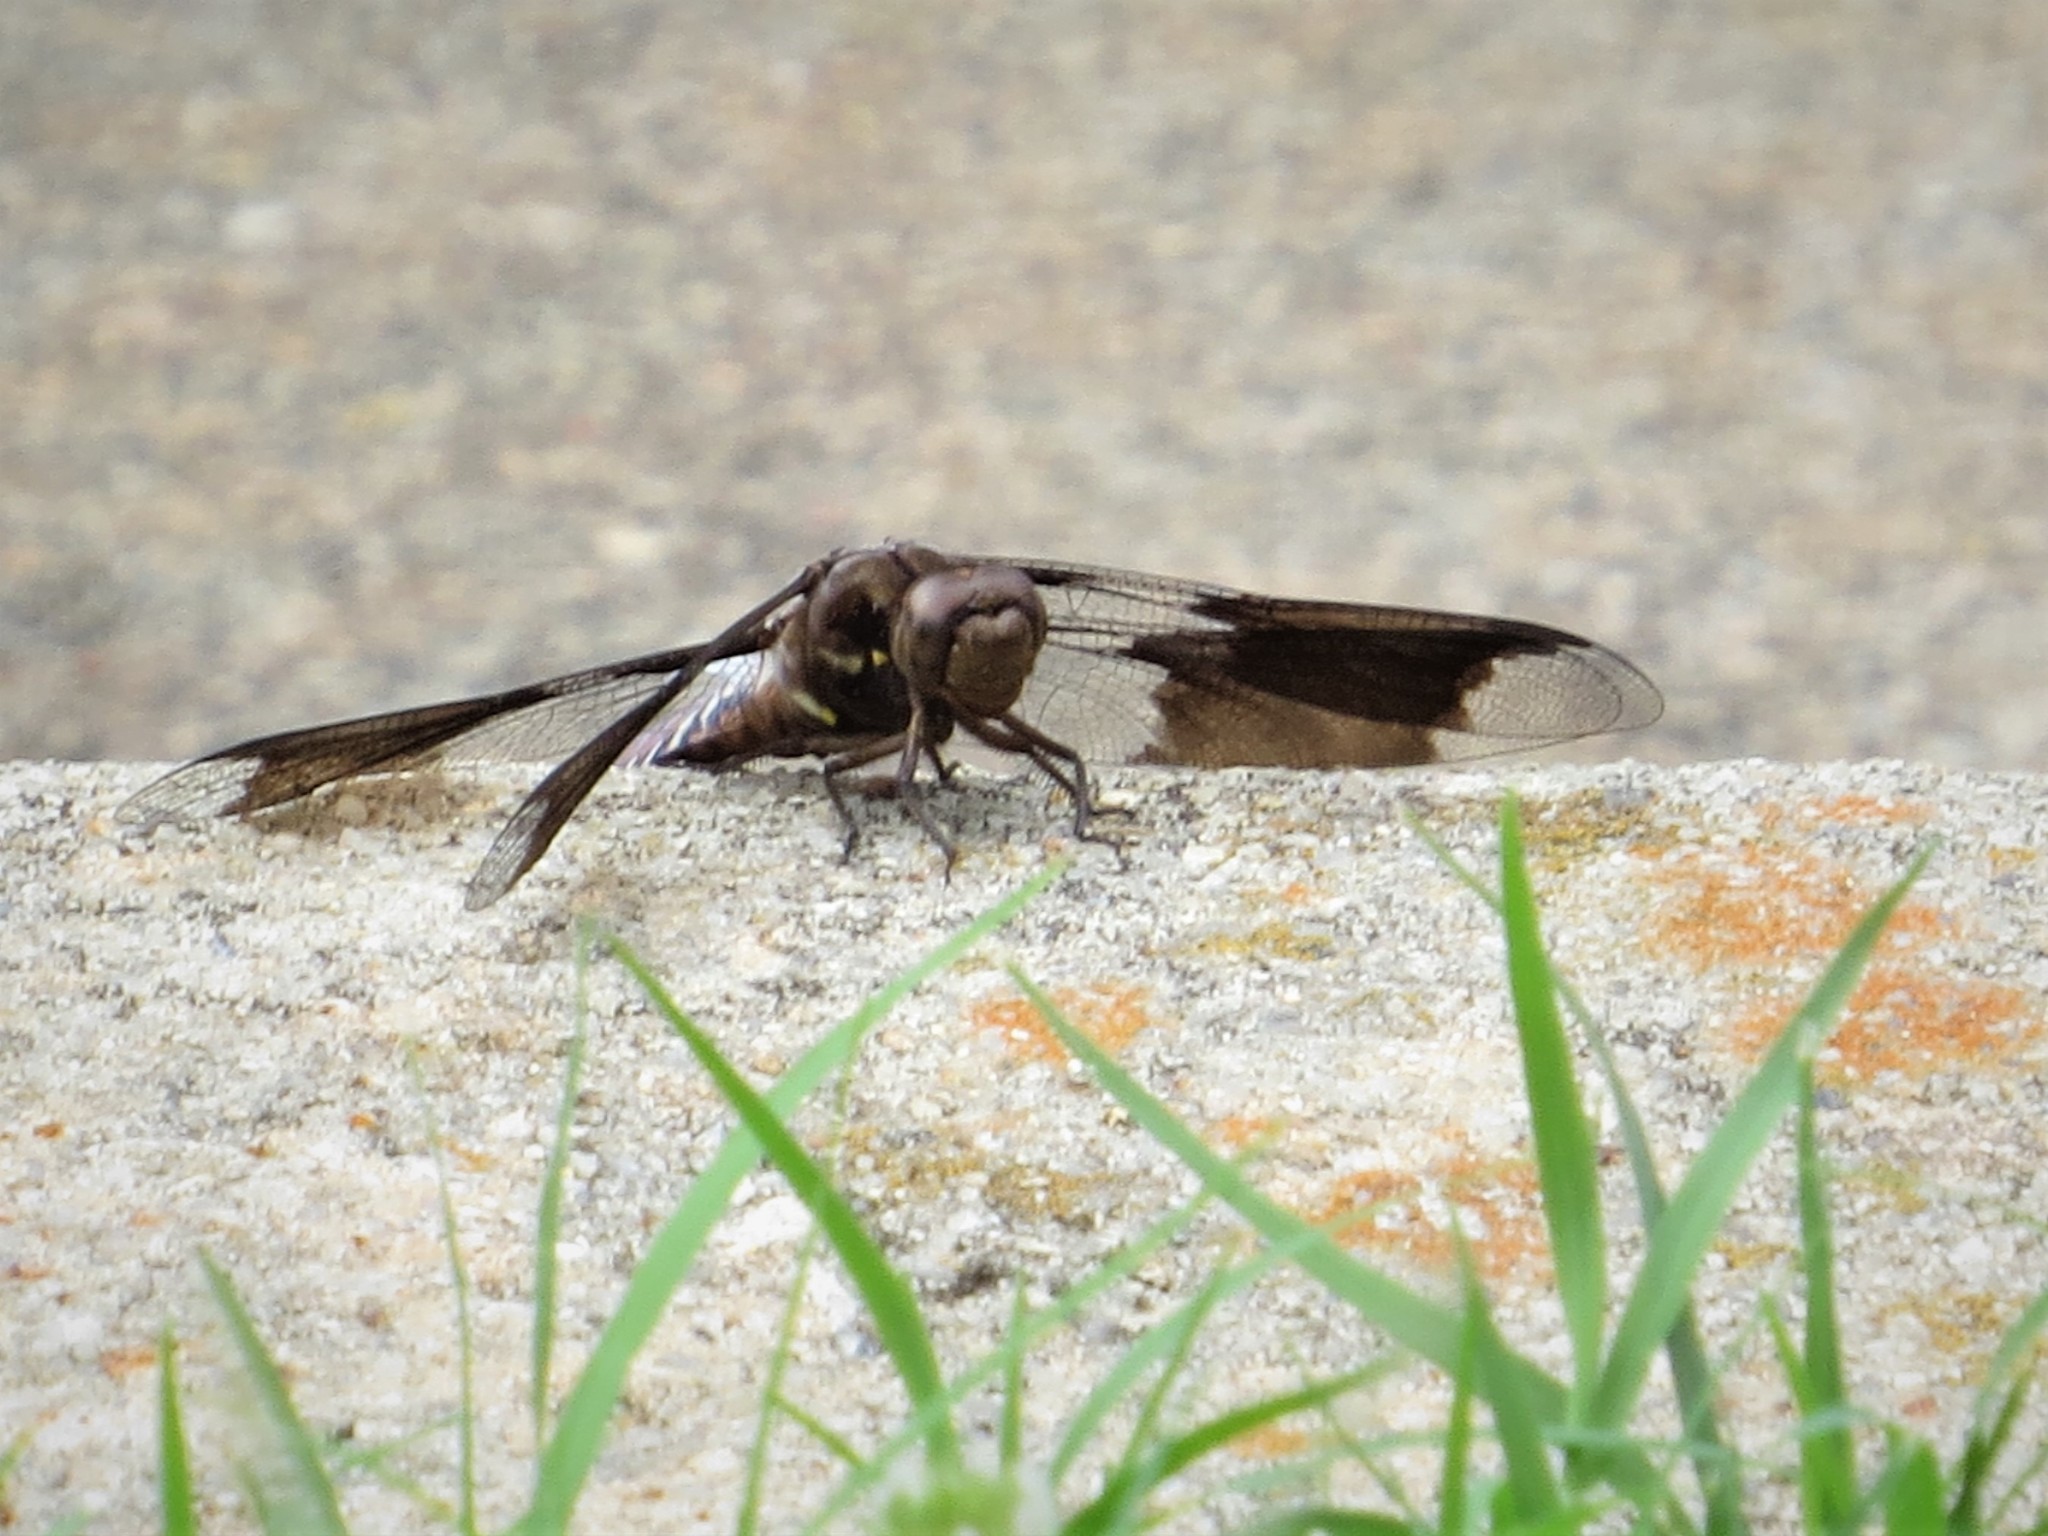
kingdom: Animalia
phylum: Arthropoda
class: Insecta
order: Odonata
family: Libellulidae
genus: Plathemis
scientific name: Plathemis lydia
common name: Common whitetail
